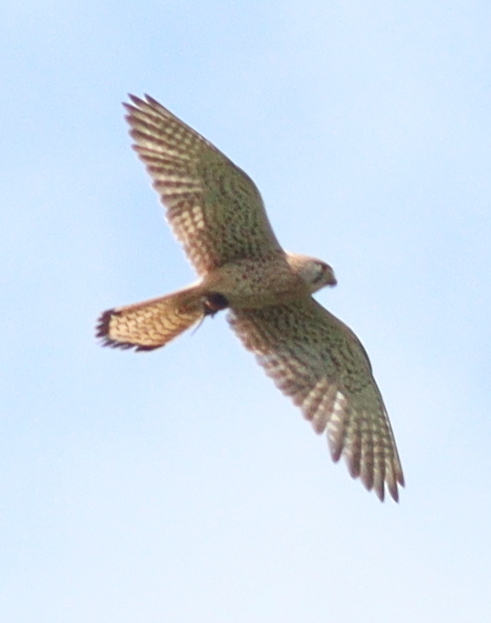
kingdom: Animalia
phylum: Chordata
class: Aves
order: Falconiformes
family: Falconidae
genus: Falco
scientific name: Falco tinnunculus
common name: Common kestrel
